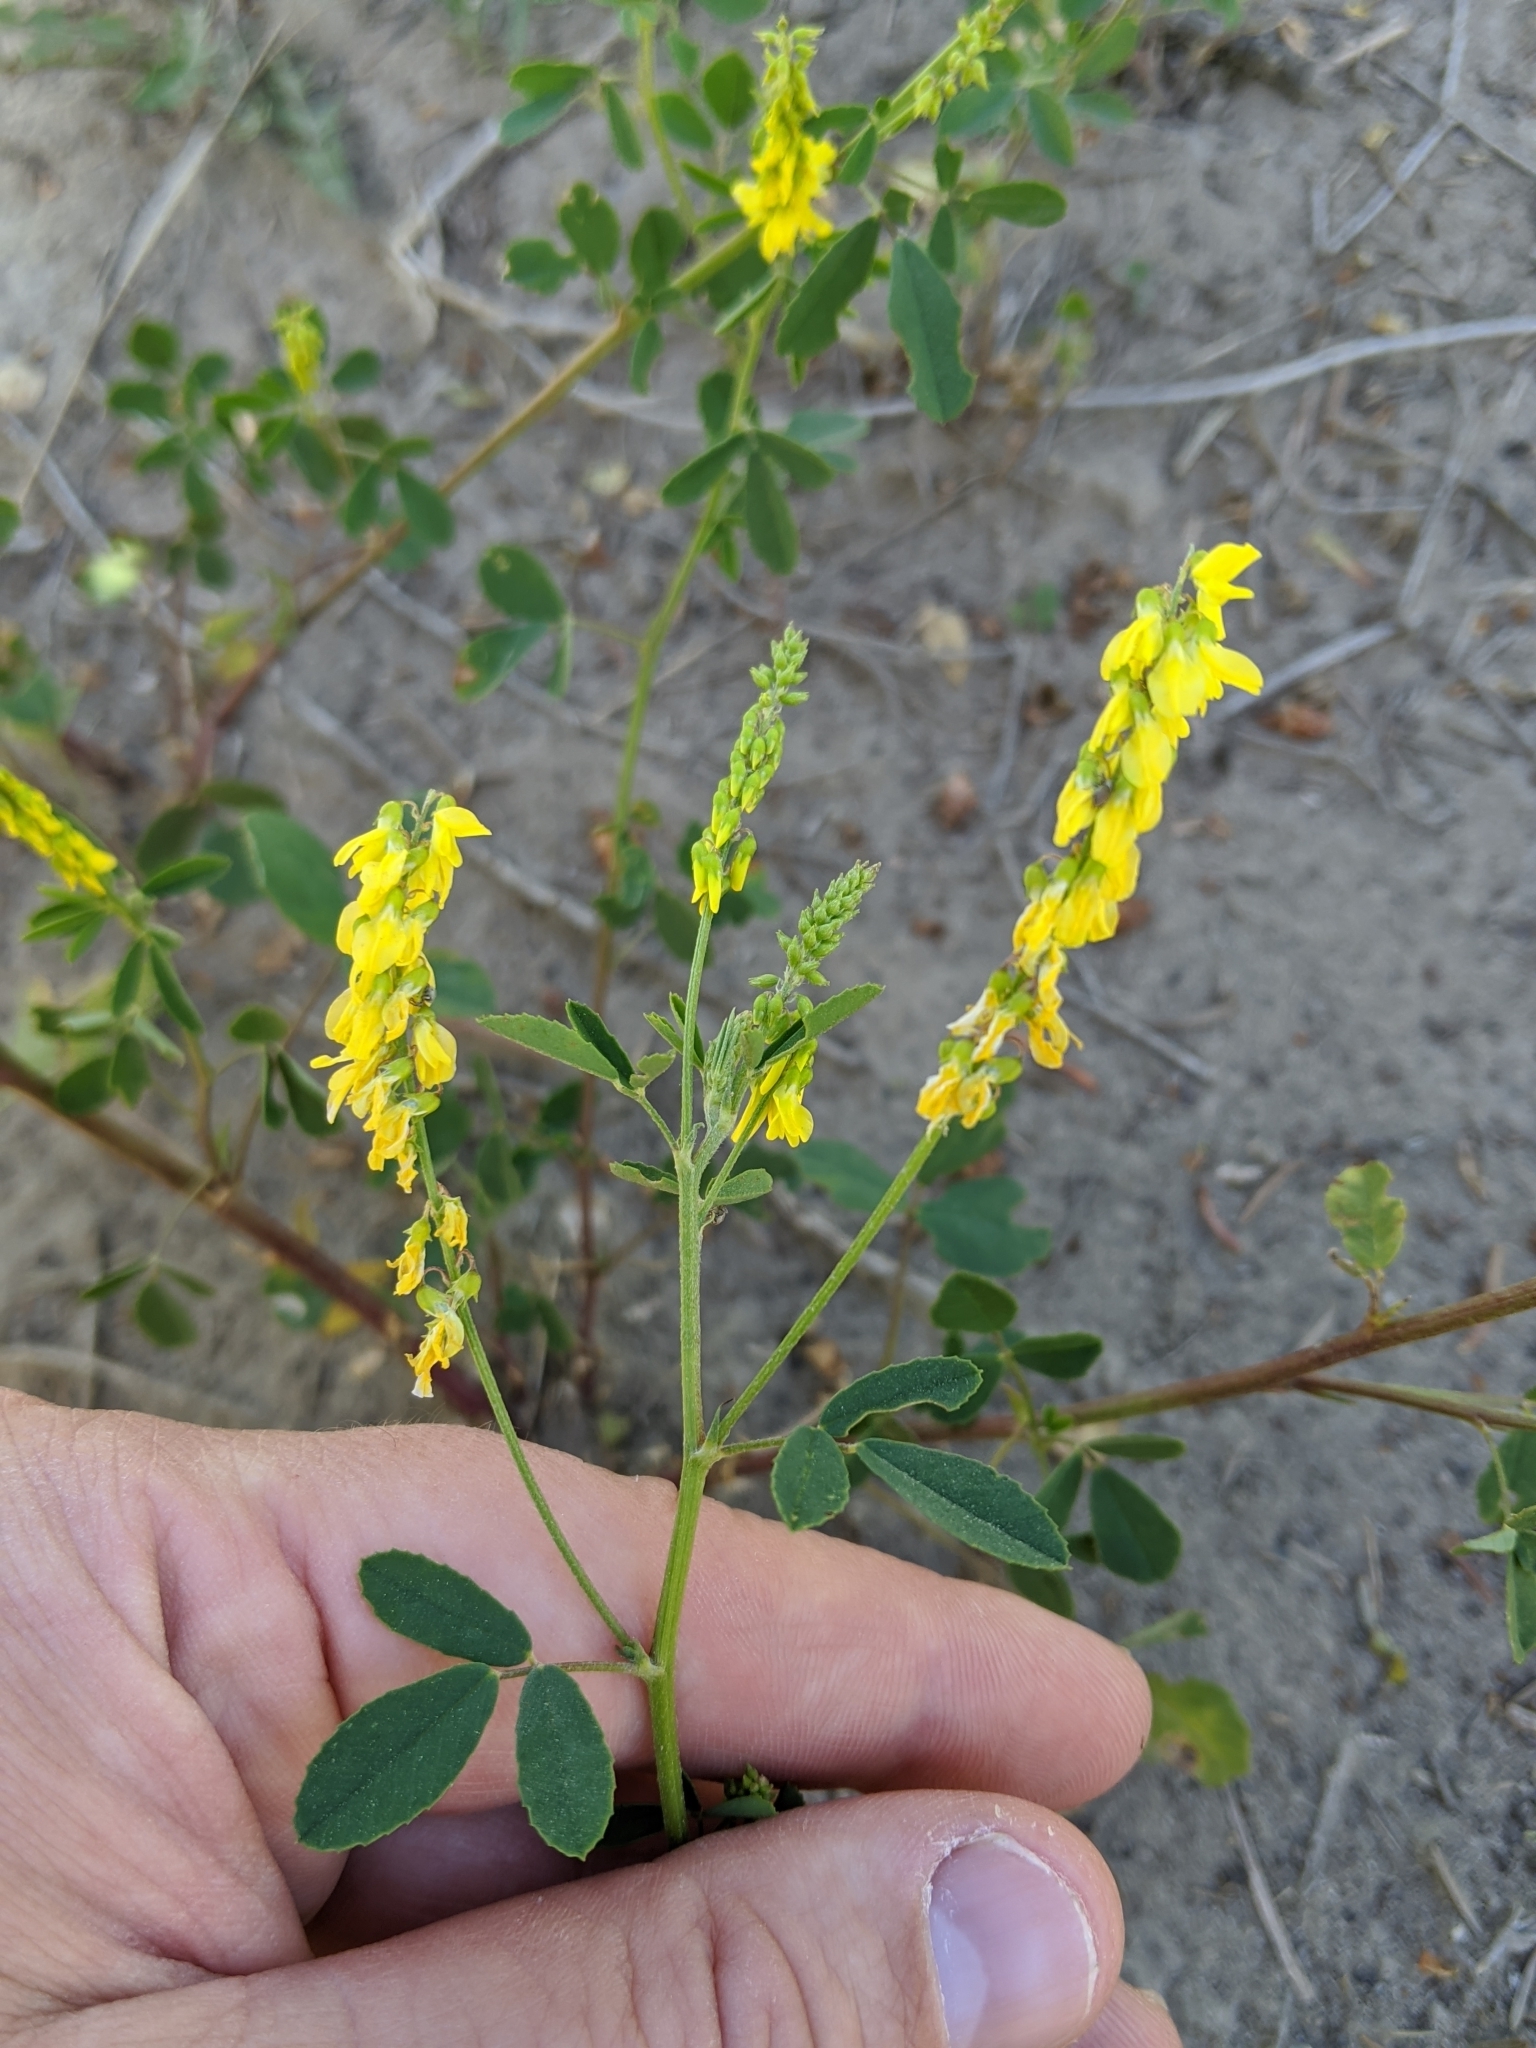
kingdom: Plantae
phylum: Tracheophyta
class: Magnoliopsida
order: Fabales
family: Fabaceae
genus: Melilotus
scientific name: Melilotus officinalis
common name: Sweetclover
